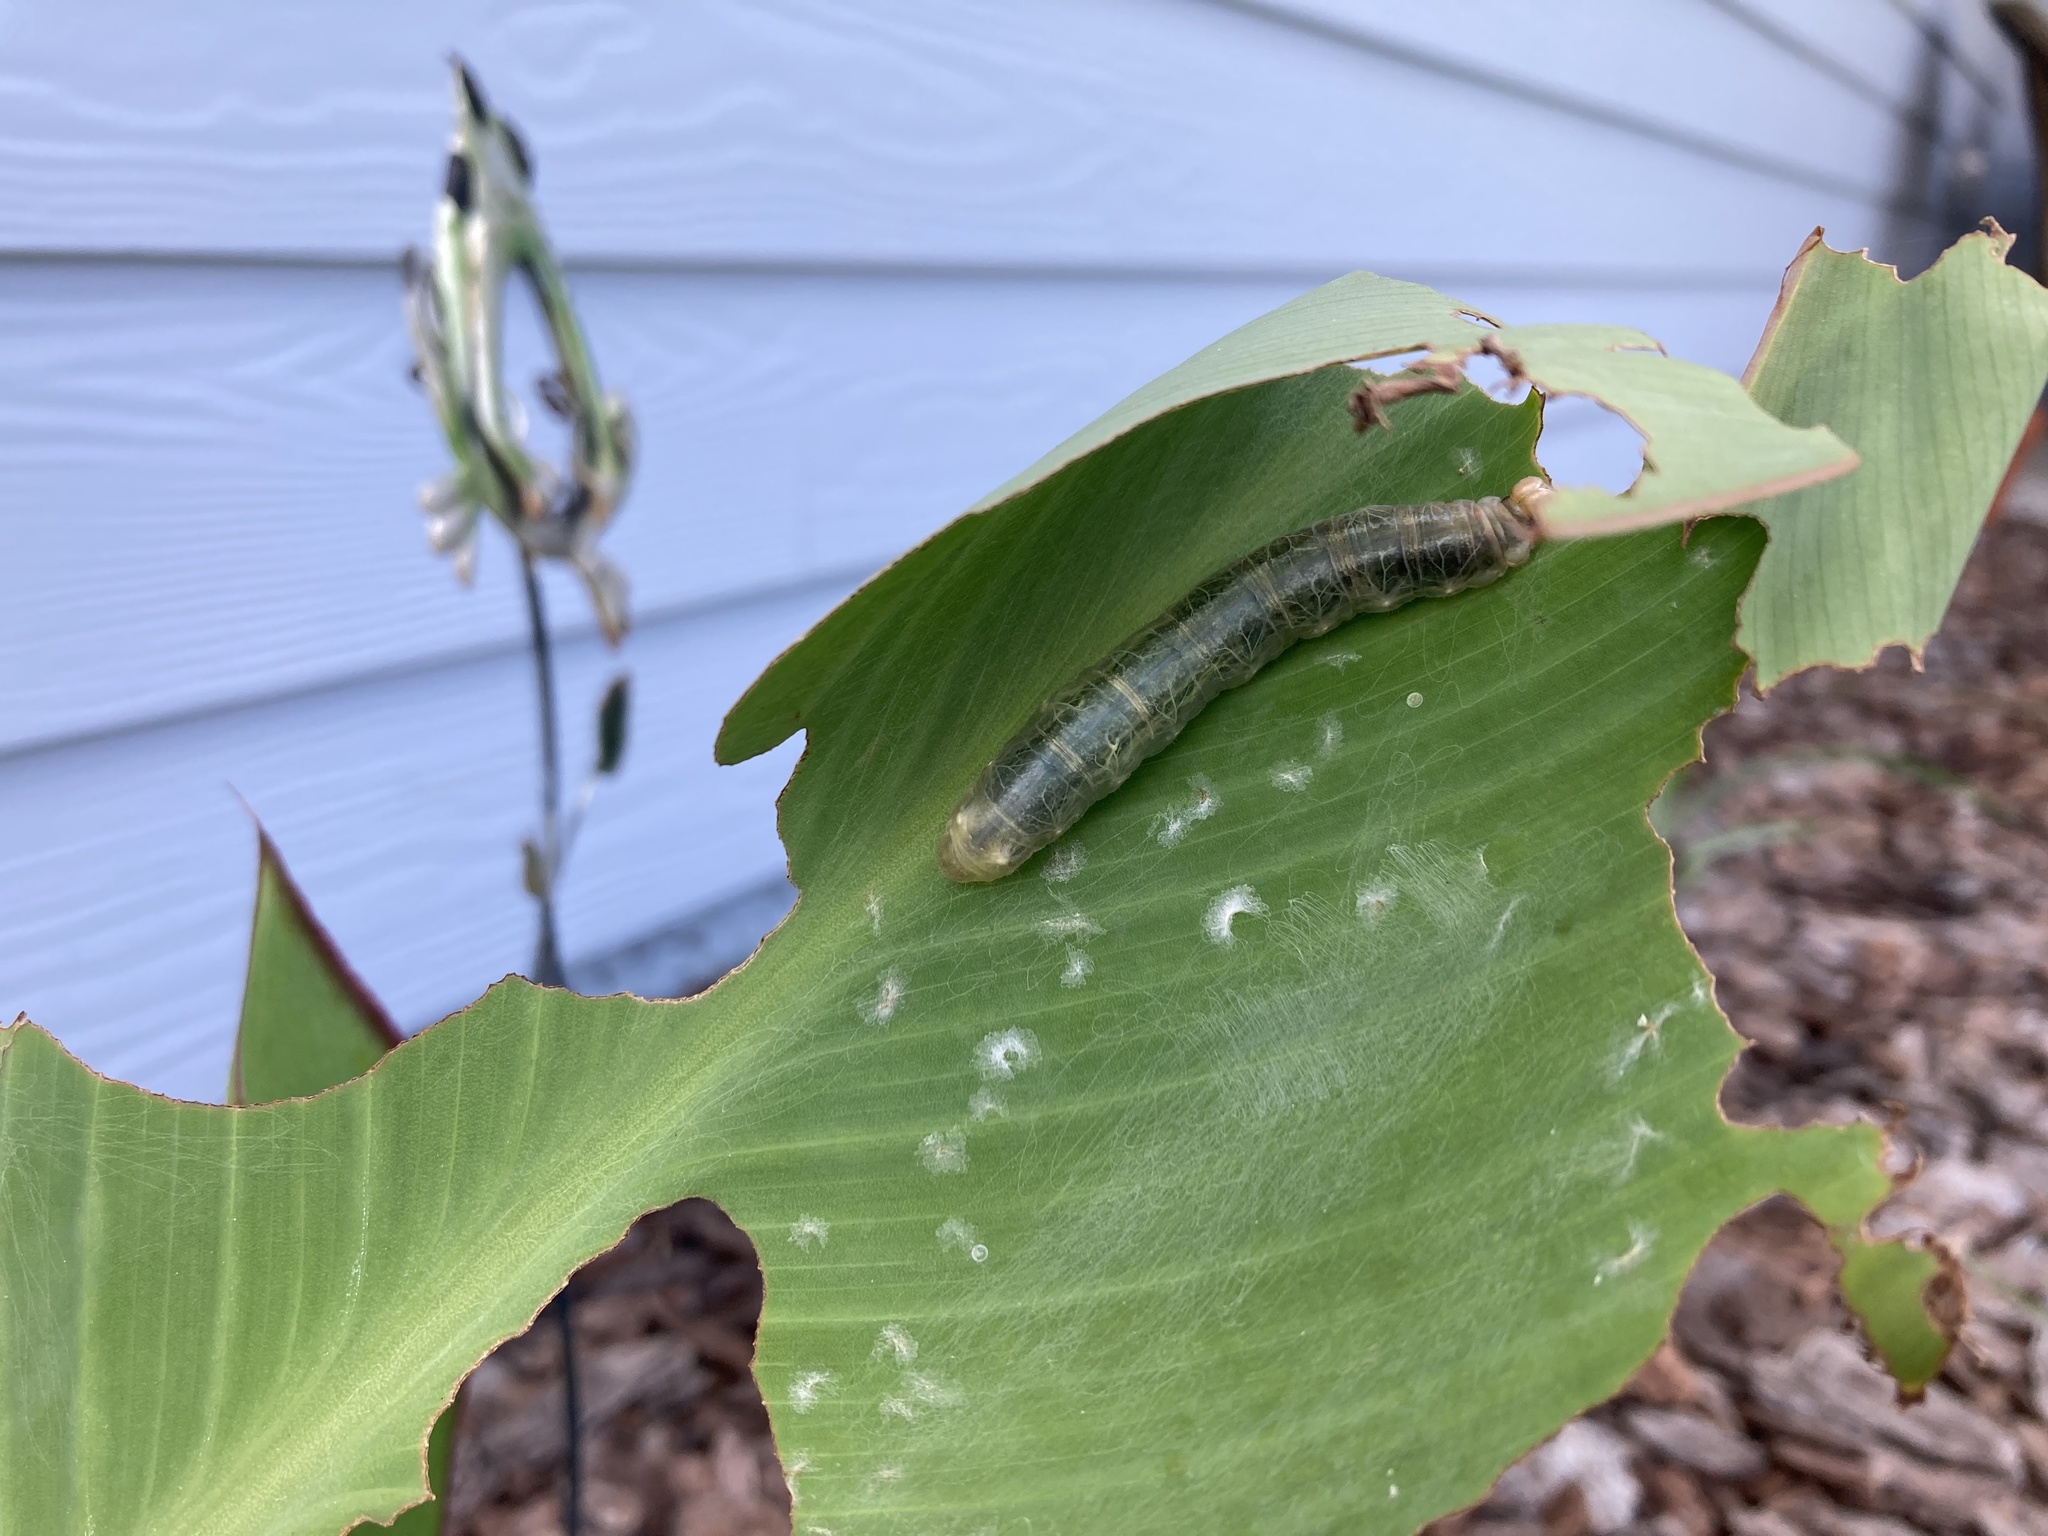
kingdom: Animalia
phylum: Arthropoda
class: Insecta
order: Lepidoptera
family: Hesperiidae
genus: Calpodes
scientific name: Calpodes ethlius
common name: Brazilian skipper
